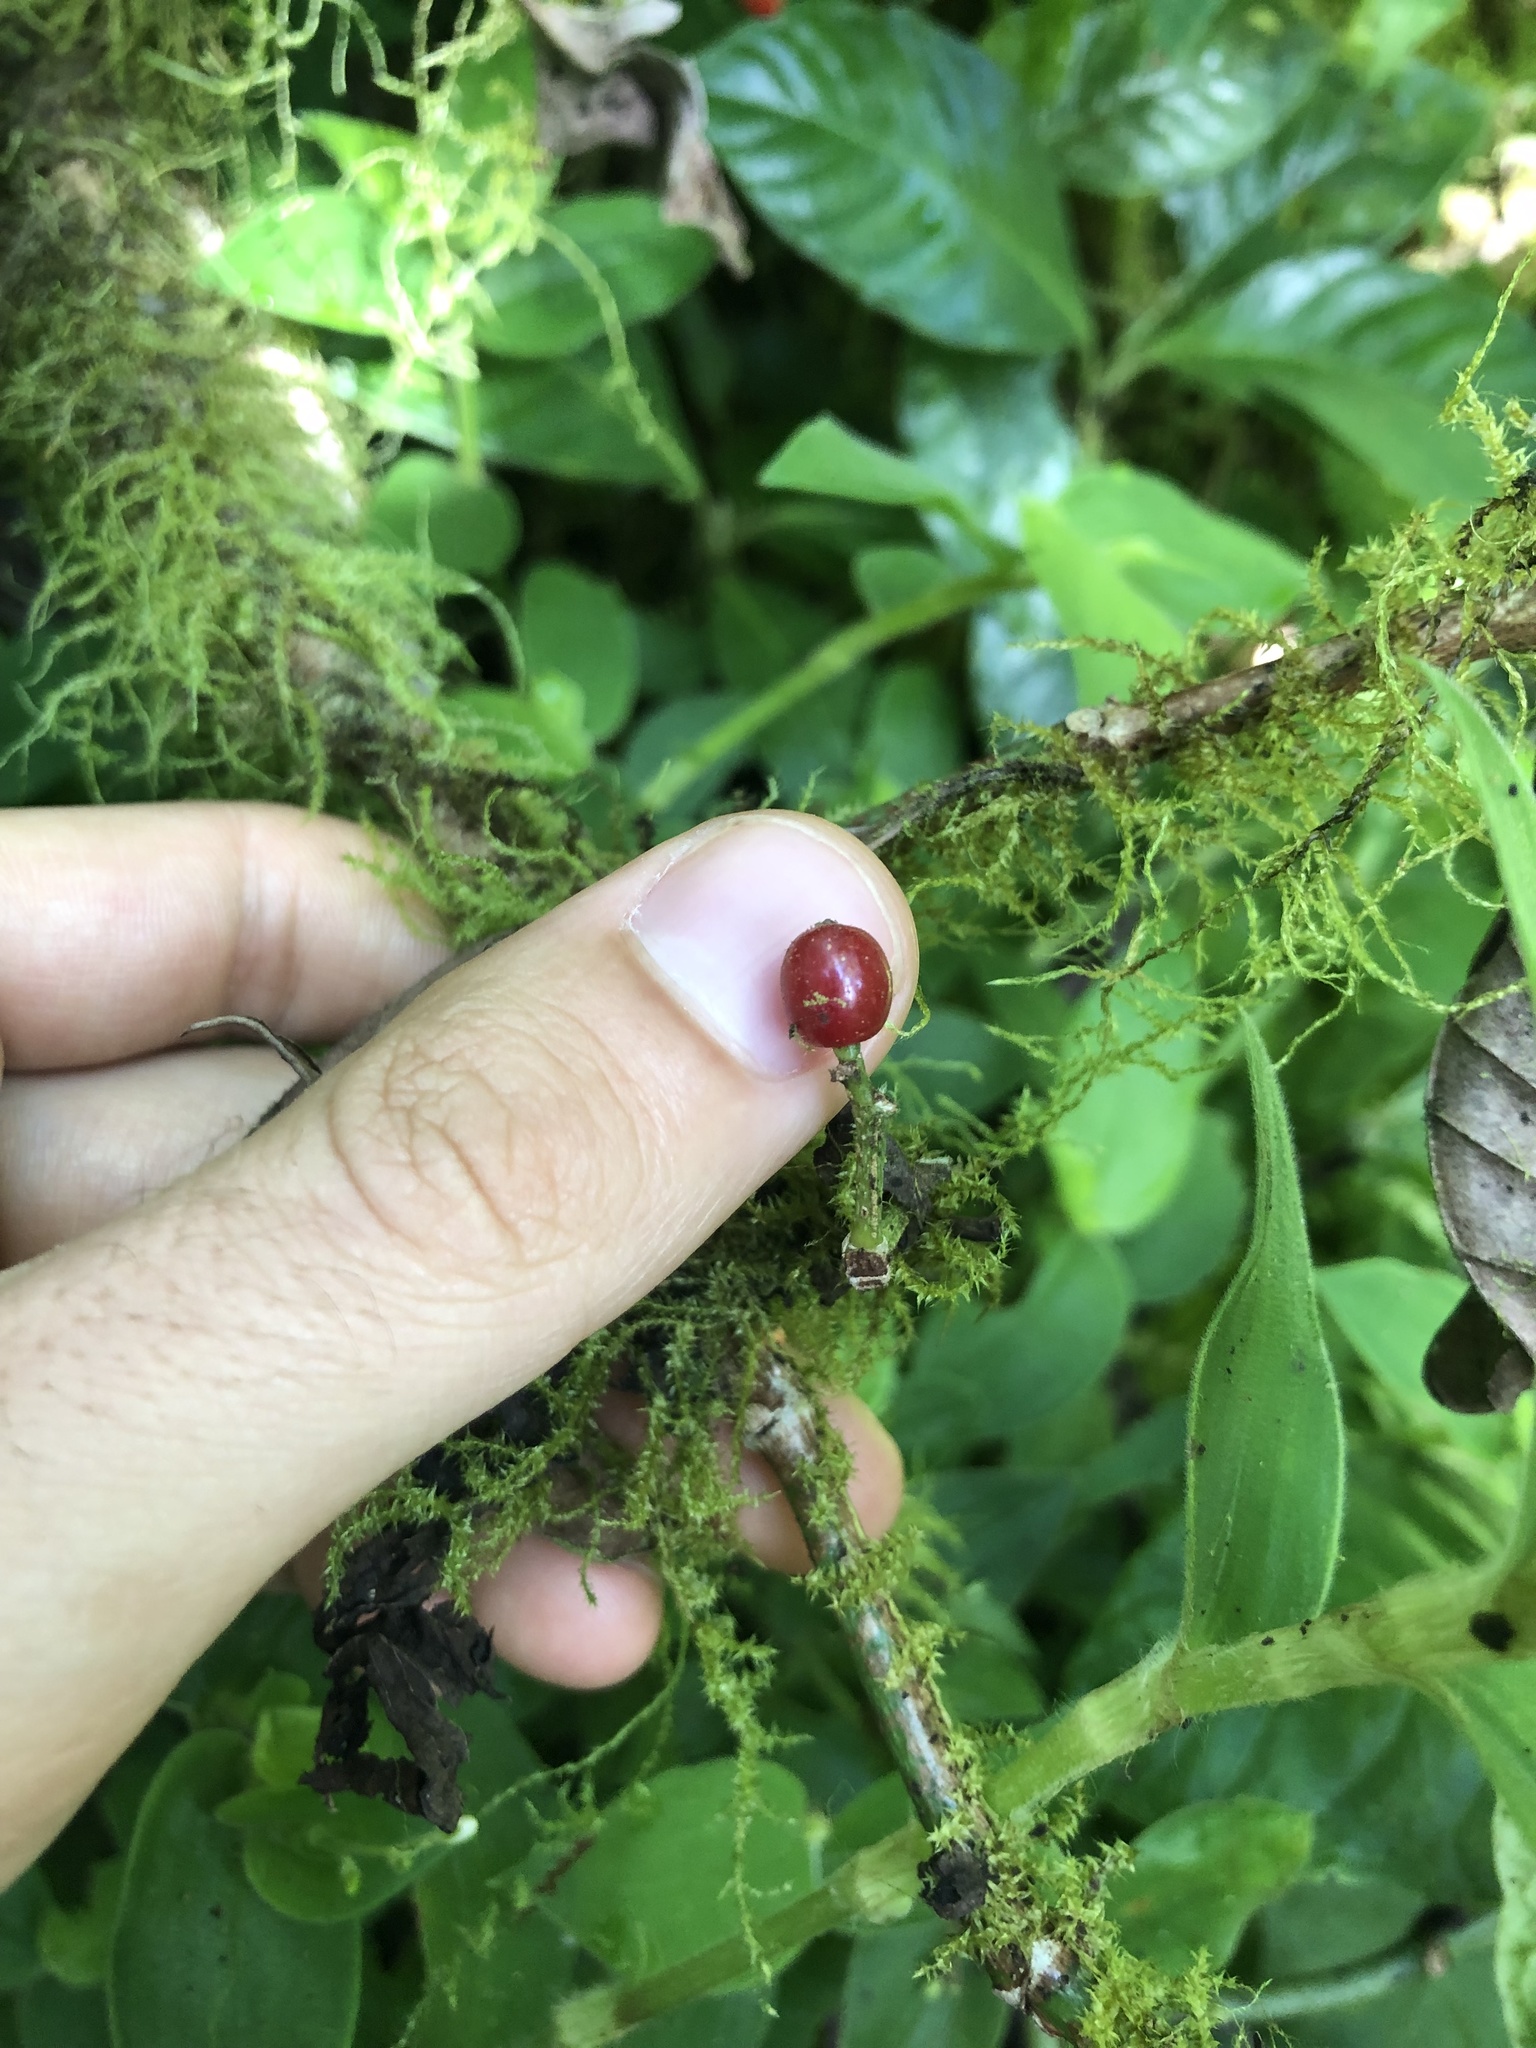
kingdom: Plantae
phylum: Tracheophyta
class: Magnoliopsida
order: Gentianales
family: Rubiaceae
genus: Psychotria
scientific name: Psychotria rufipes
